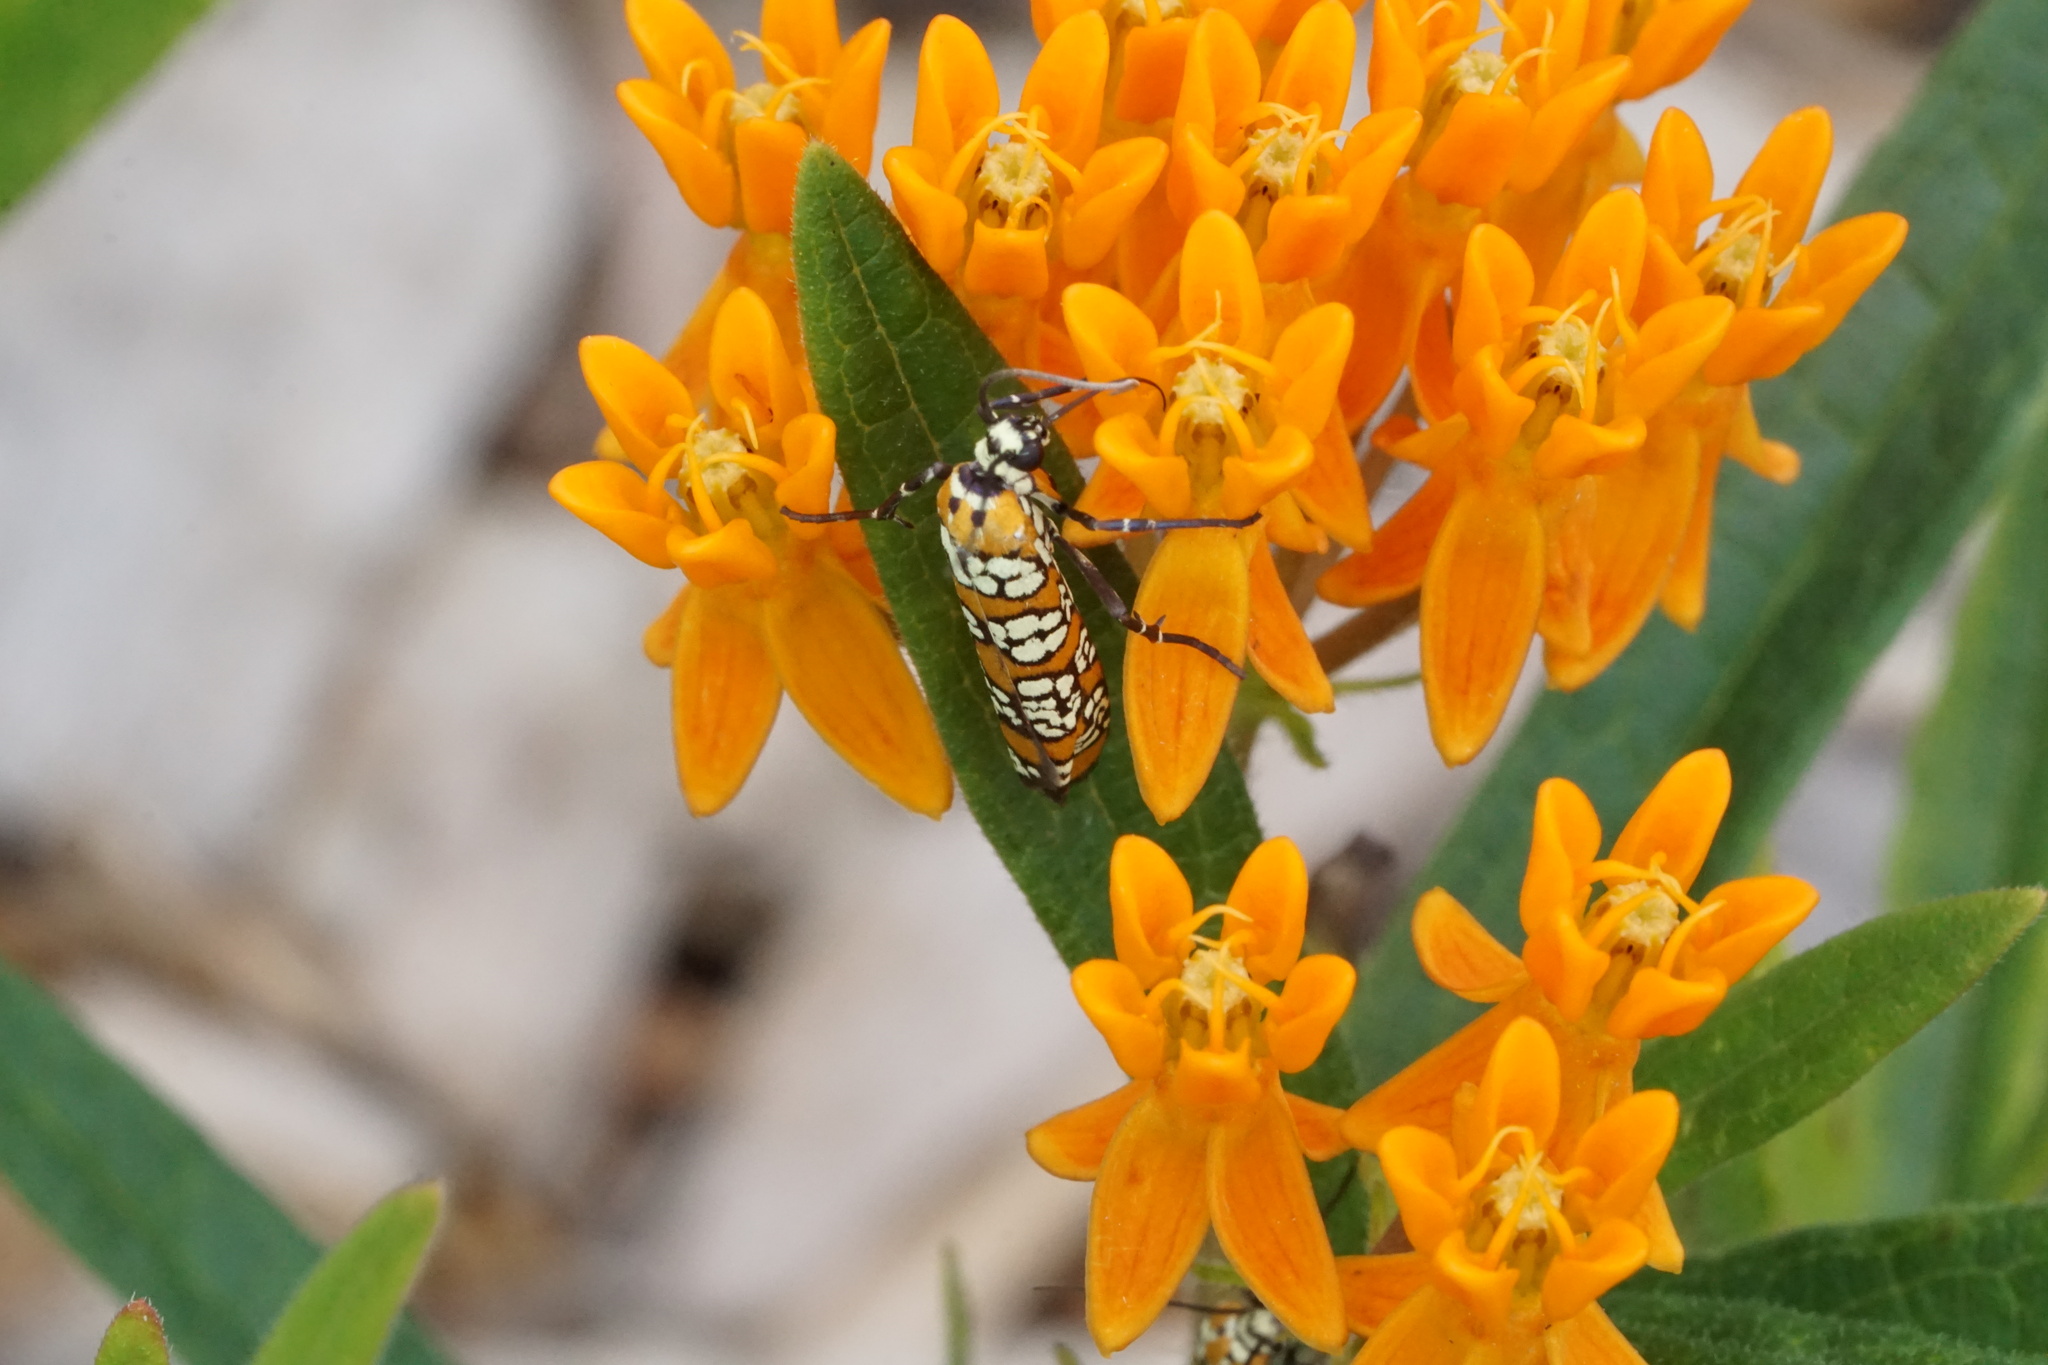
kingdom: Animalia
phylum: Arthropoda
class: Insecta
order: Lepidoptera
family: Attevidae
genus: Atteva
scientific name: Atteva punctella
